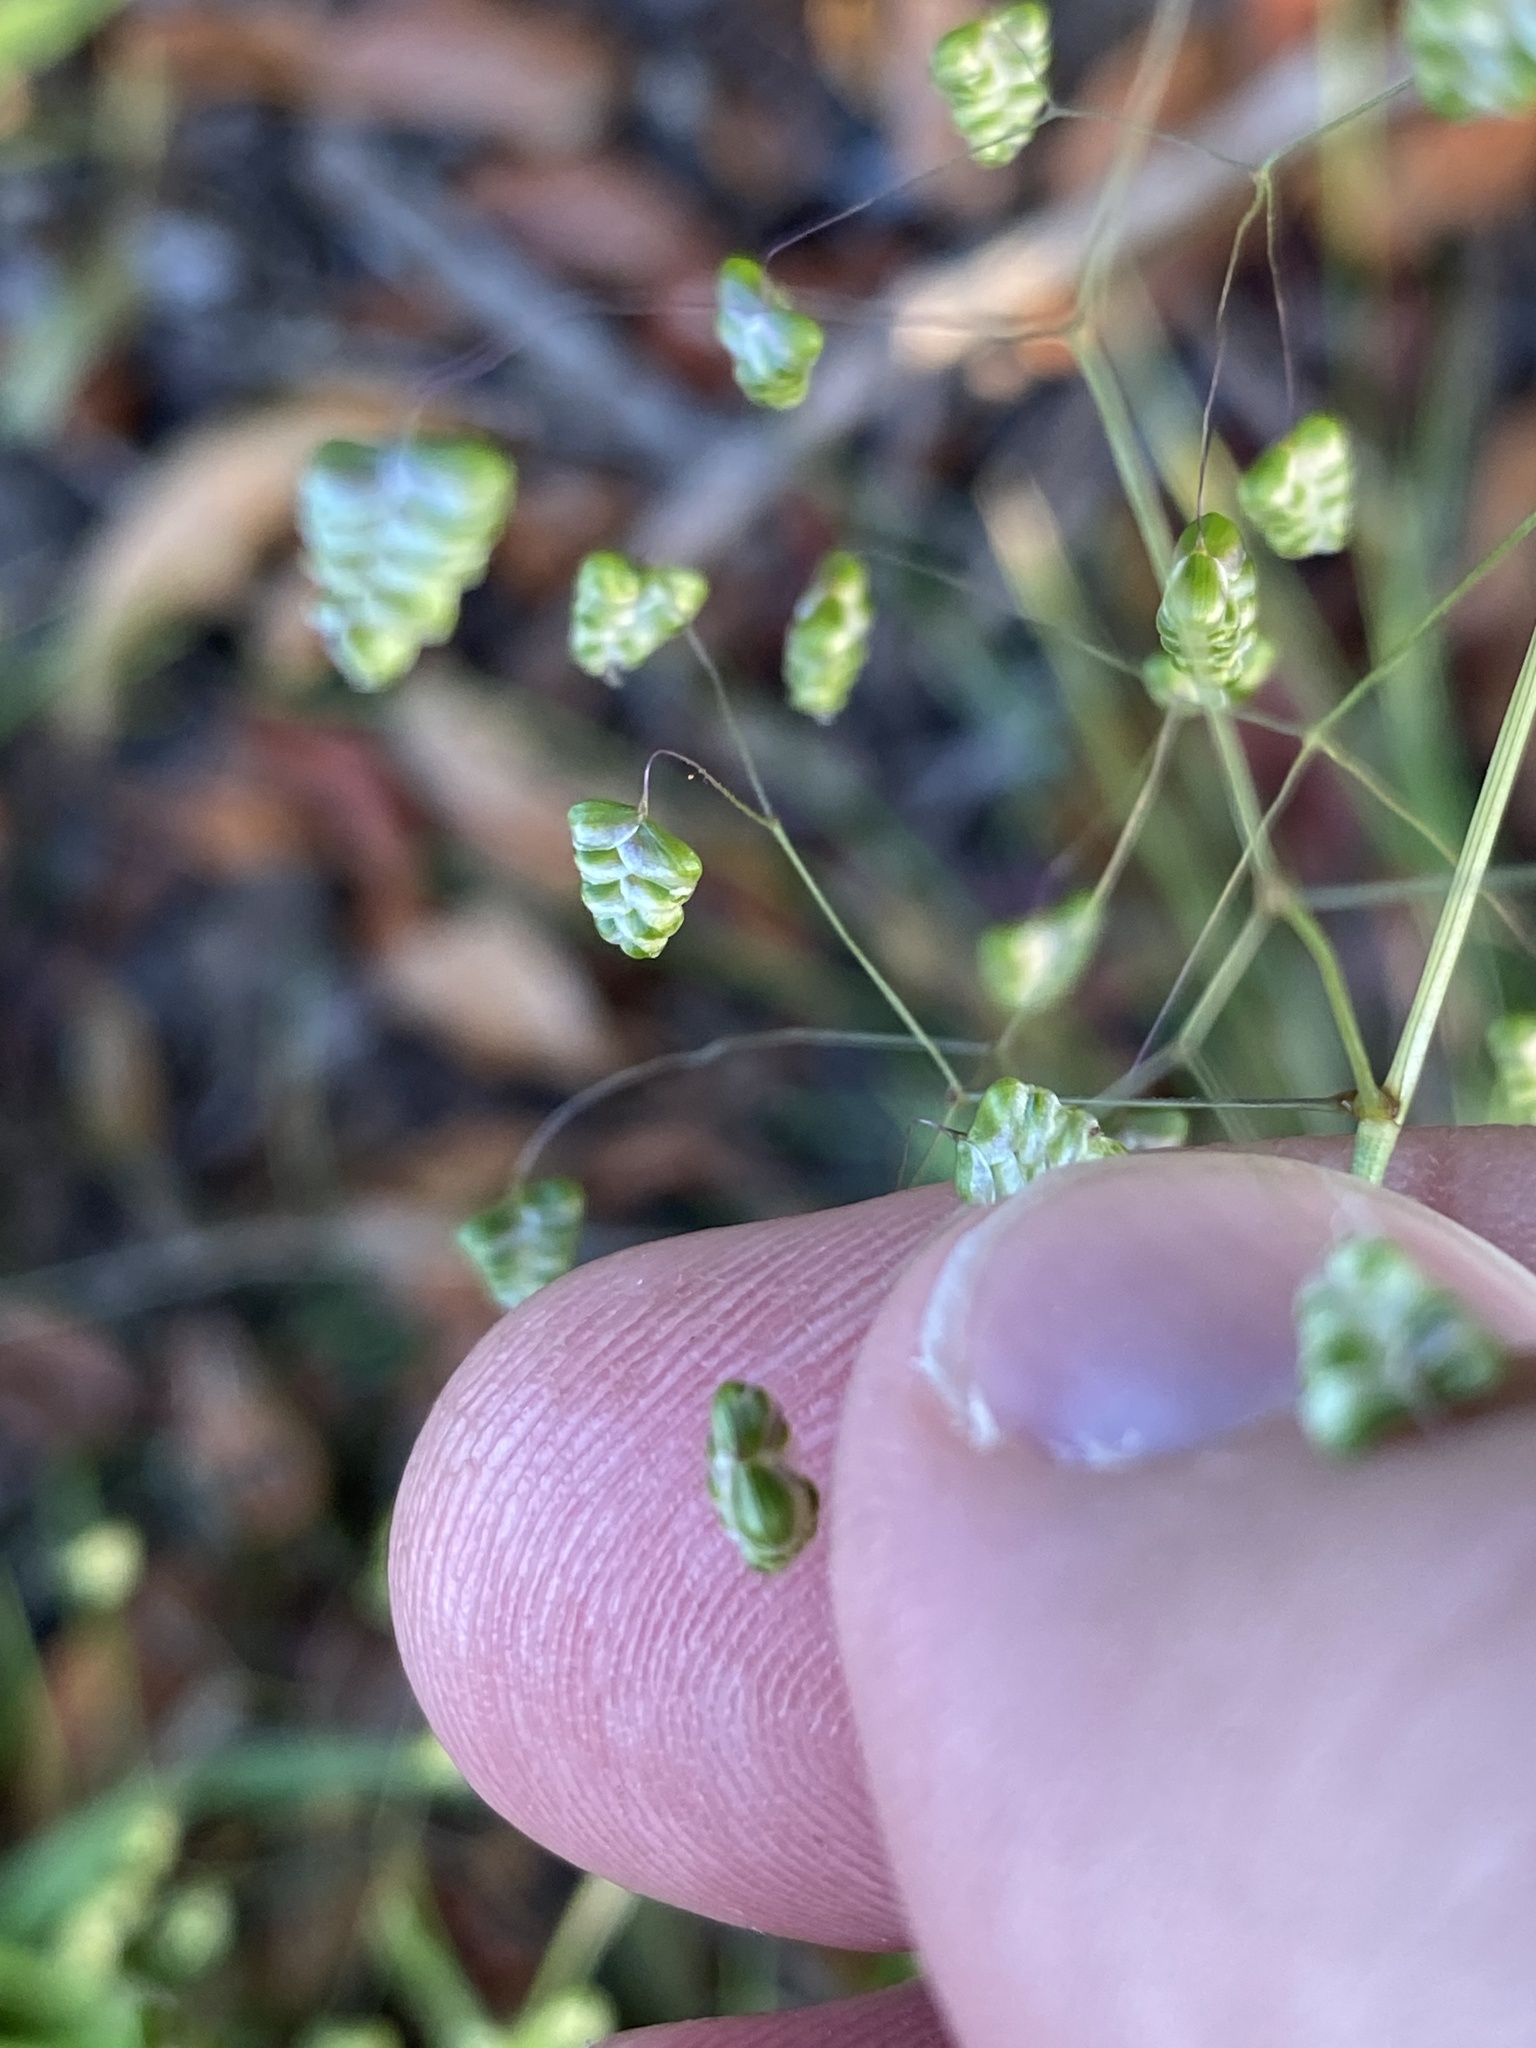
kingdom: Plantae
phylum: Tracheophyta
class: Liliopsida
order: Poales
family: Poaceae
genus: Briza
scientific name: Briza minor
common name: Lesser quaking-grass
